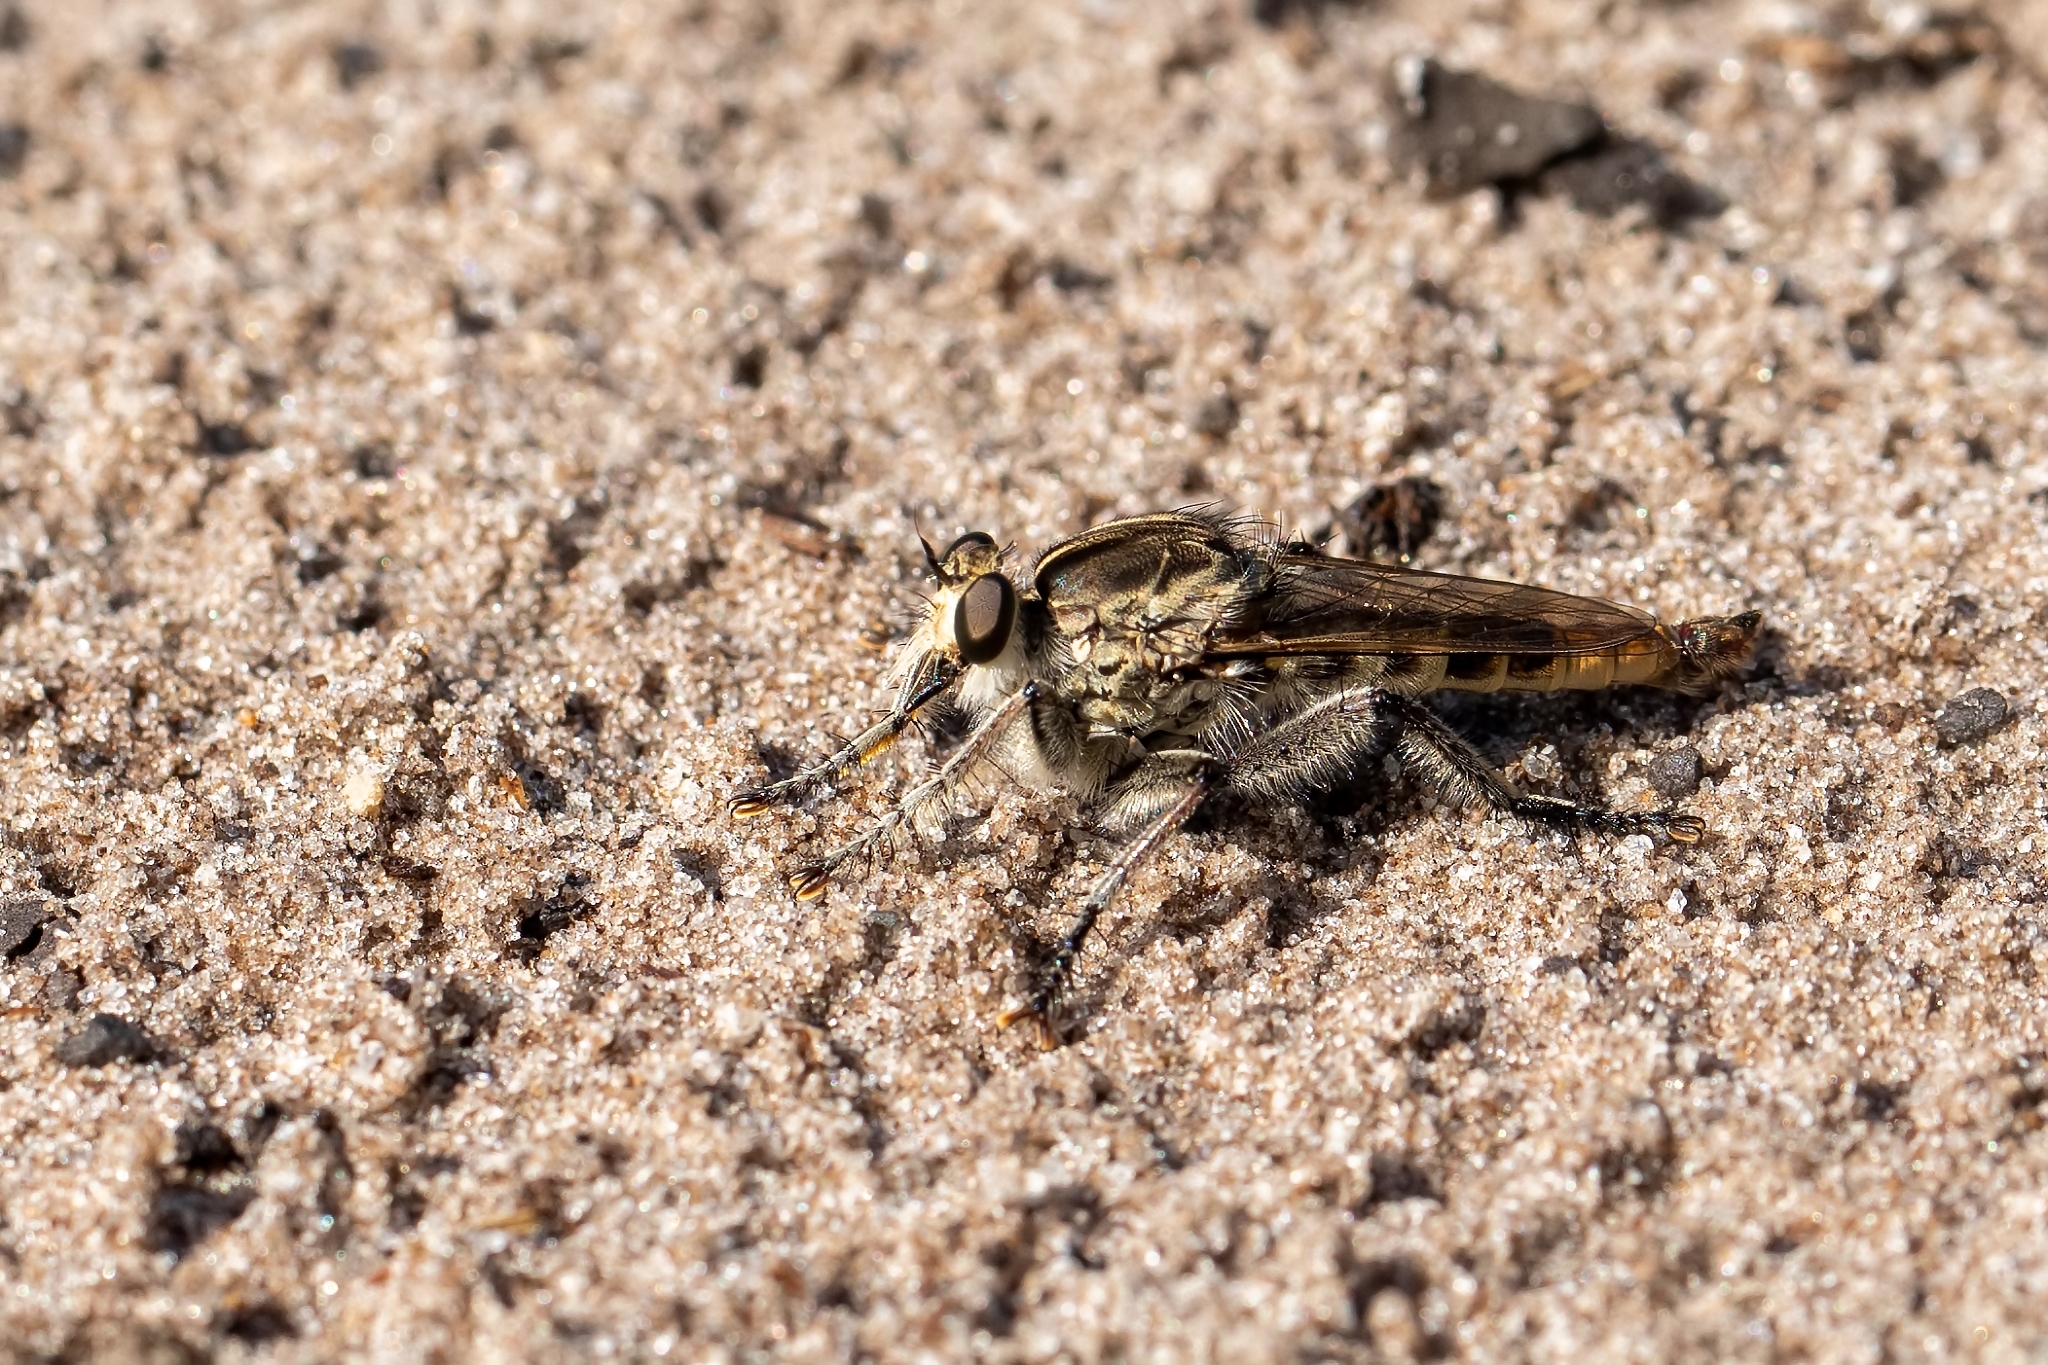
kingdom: Animalia
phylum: Arthropoda
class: Insecta
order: Diptera
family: Asilidae
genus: Triorla
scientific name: Triorla interrupta
